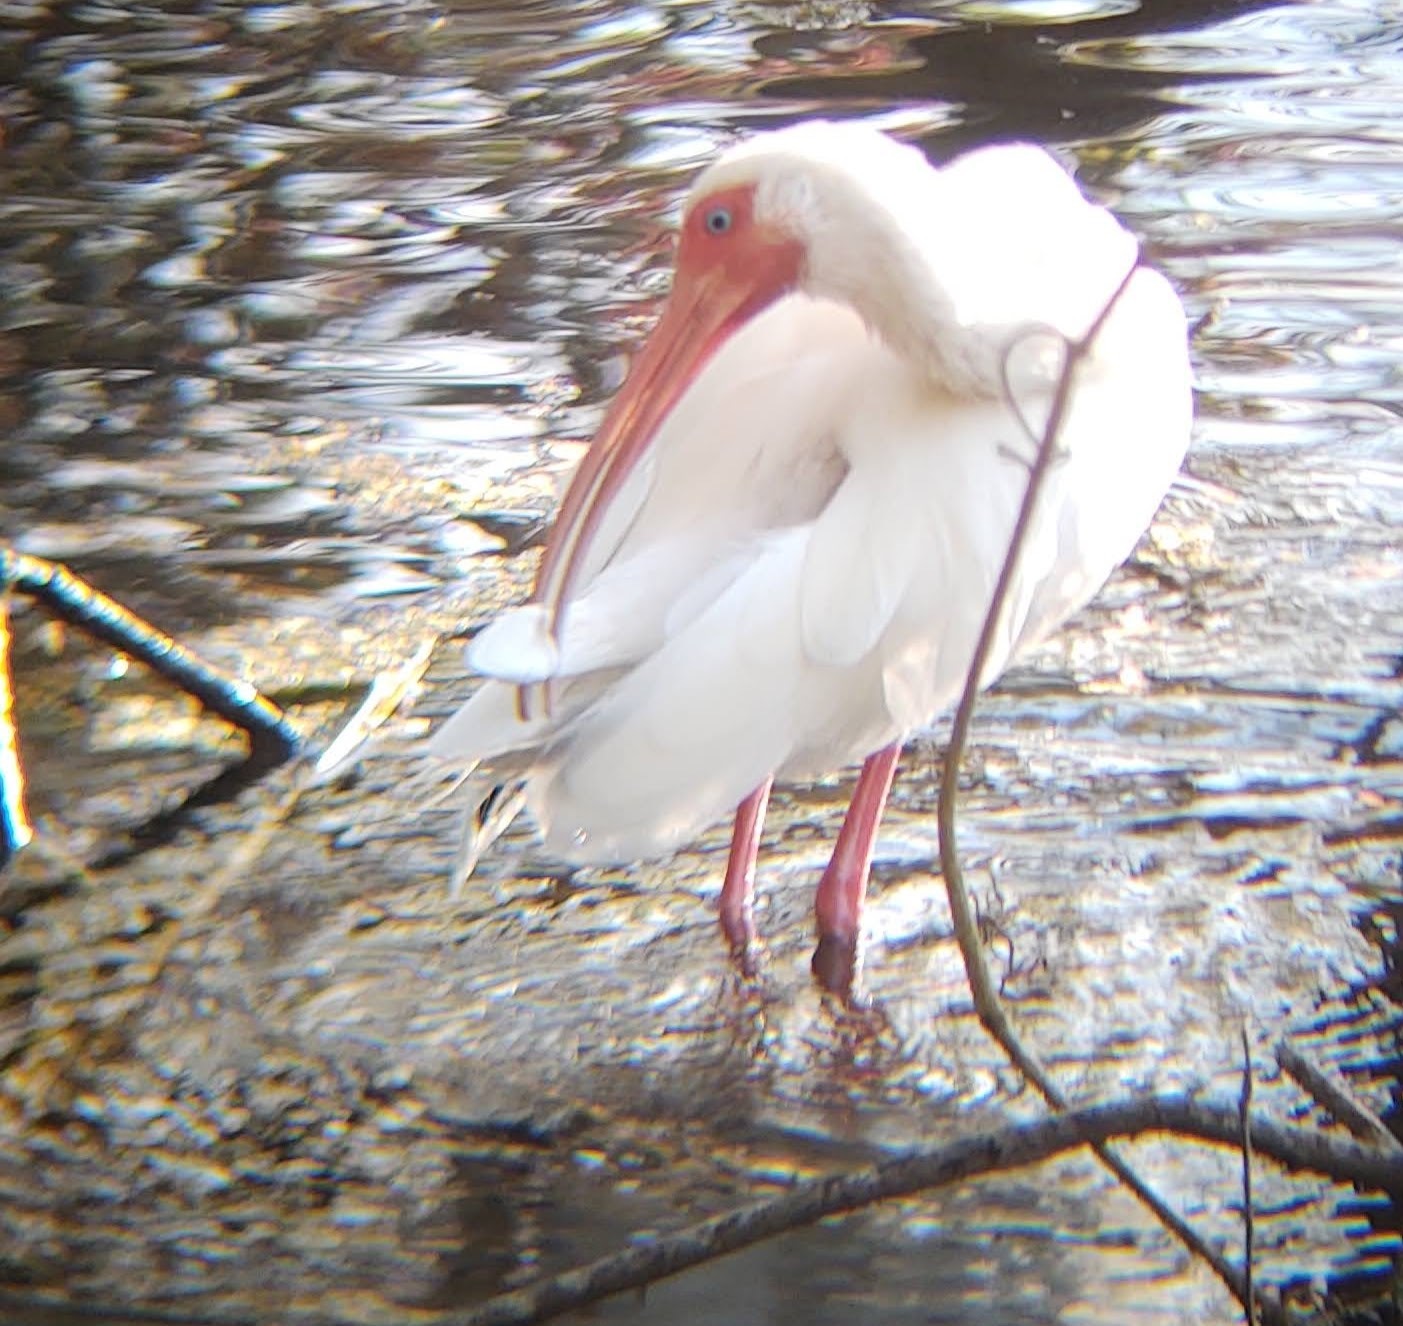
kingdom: Animalia
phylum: Chordata
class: Aves
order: Pelecaniformes
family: Threskiornithidae
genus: Eudocimus
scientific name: Eudocimus albus
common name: White ibis
